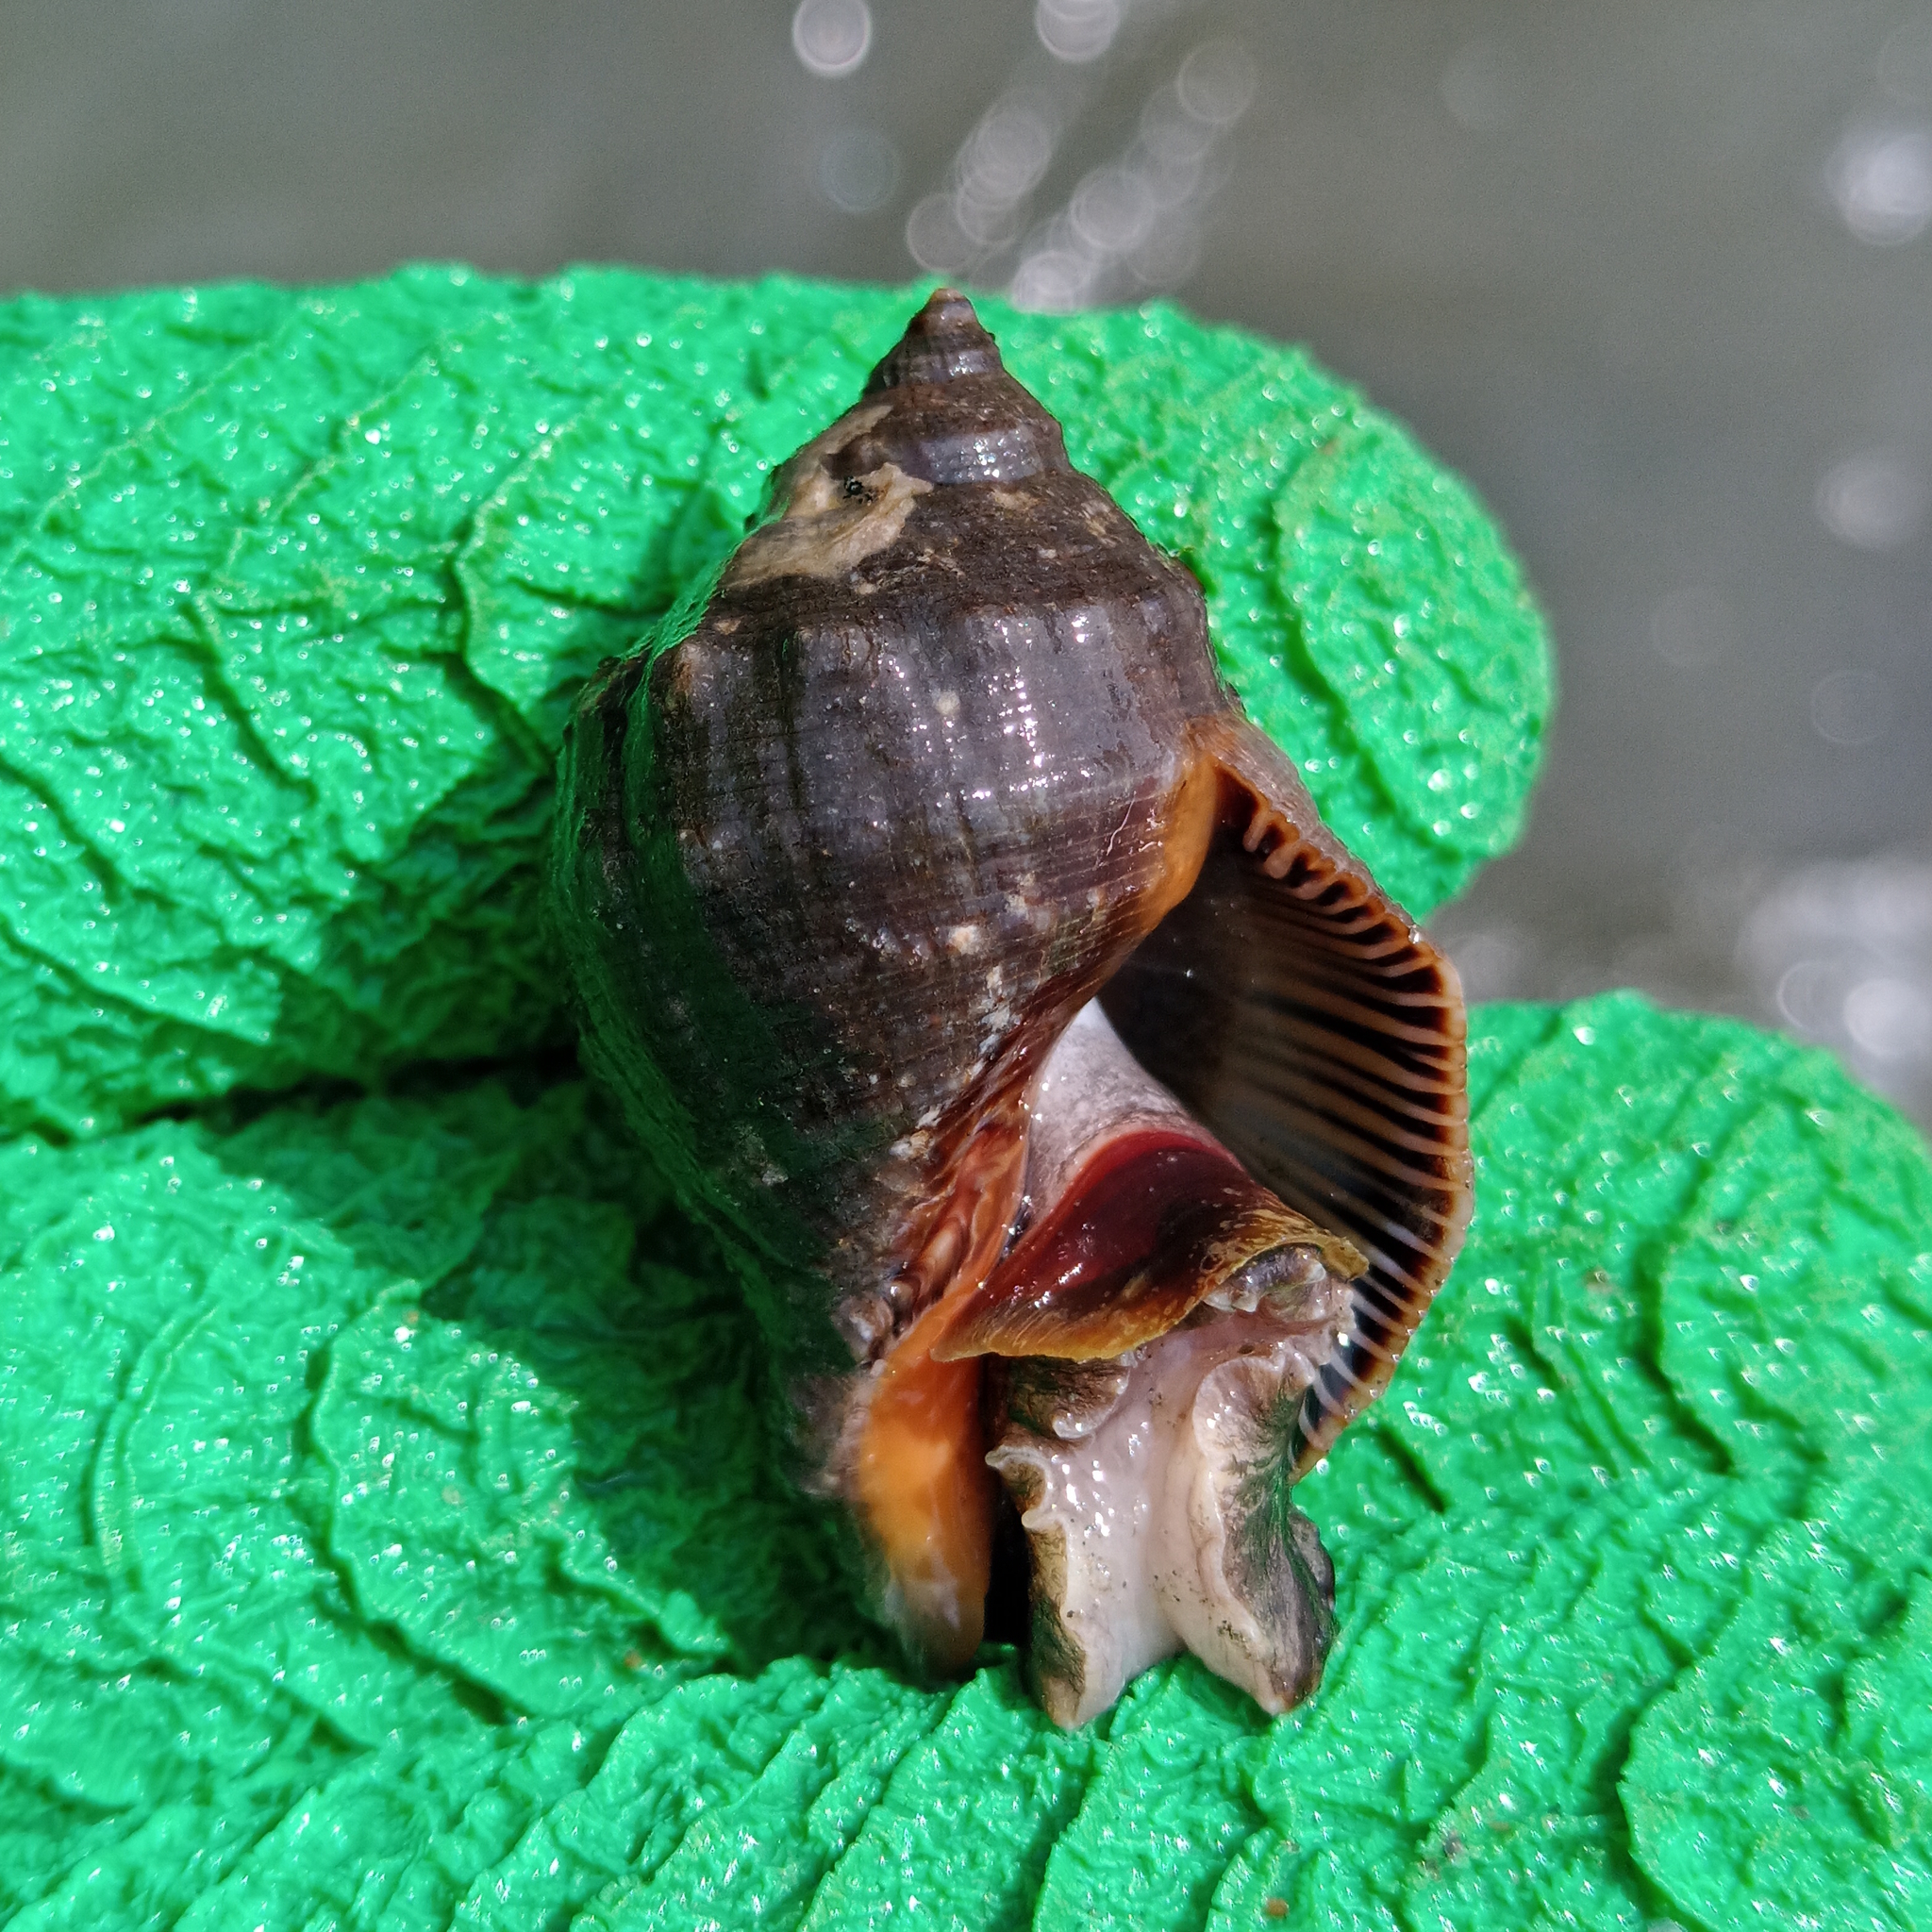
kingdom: Animalia
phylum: Mollusca
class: Gastropoda
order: Neogastropoda
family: Muricidae
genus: Stramonita
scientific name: Stramonita brasiliensis
